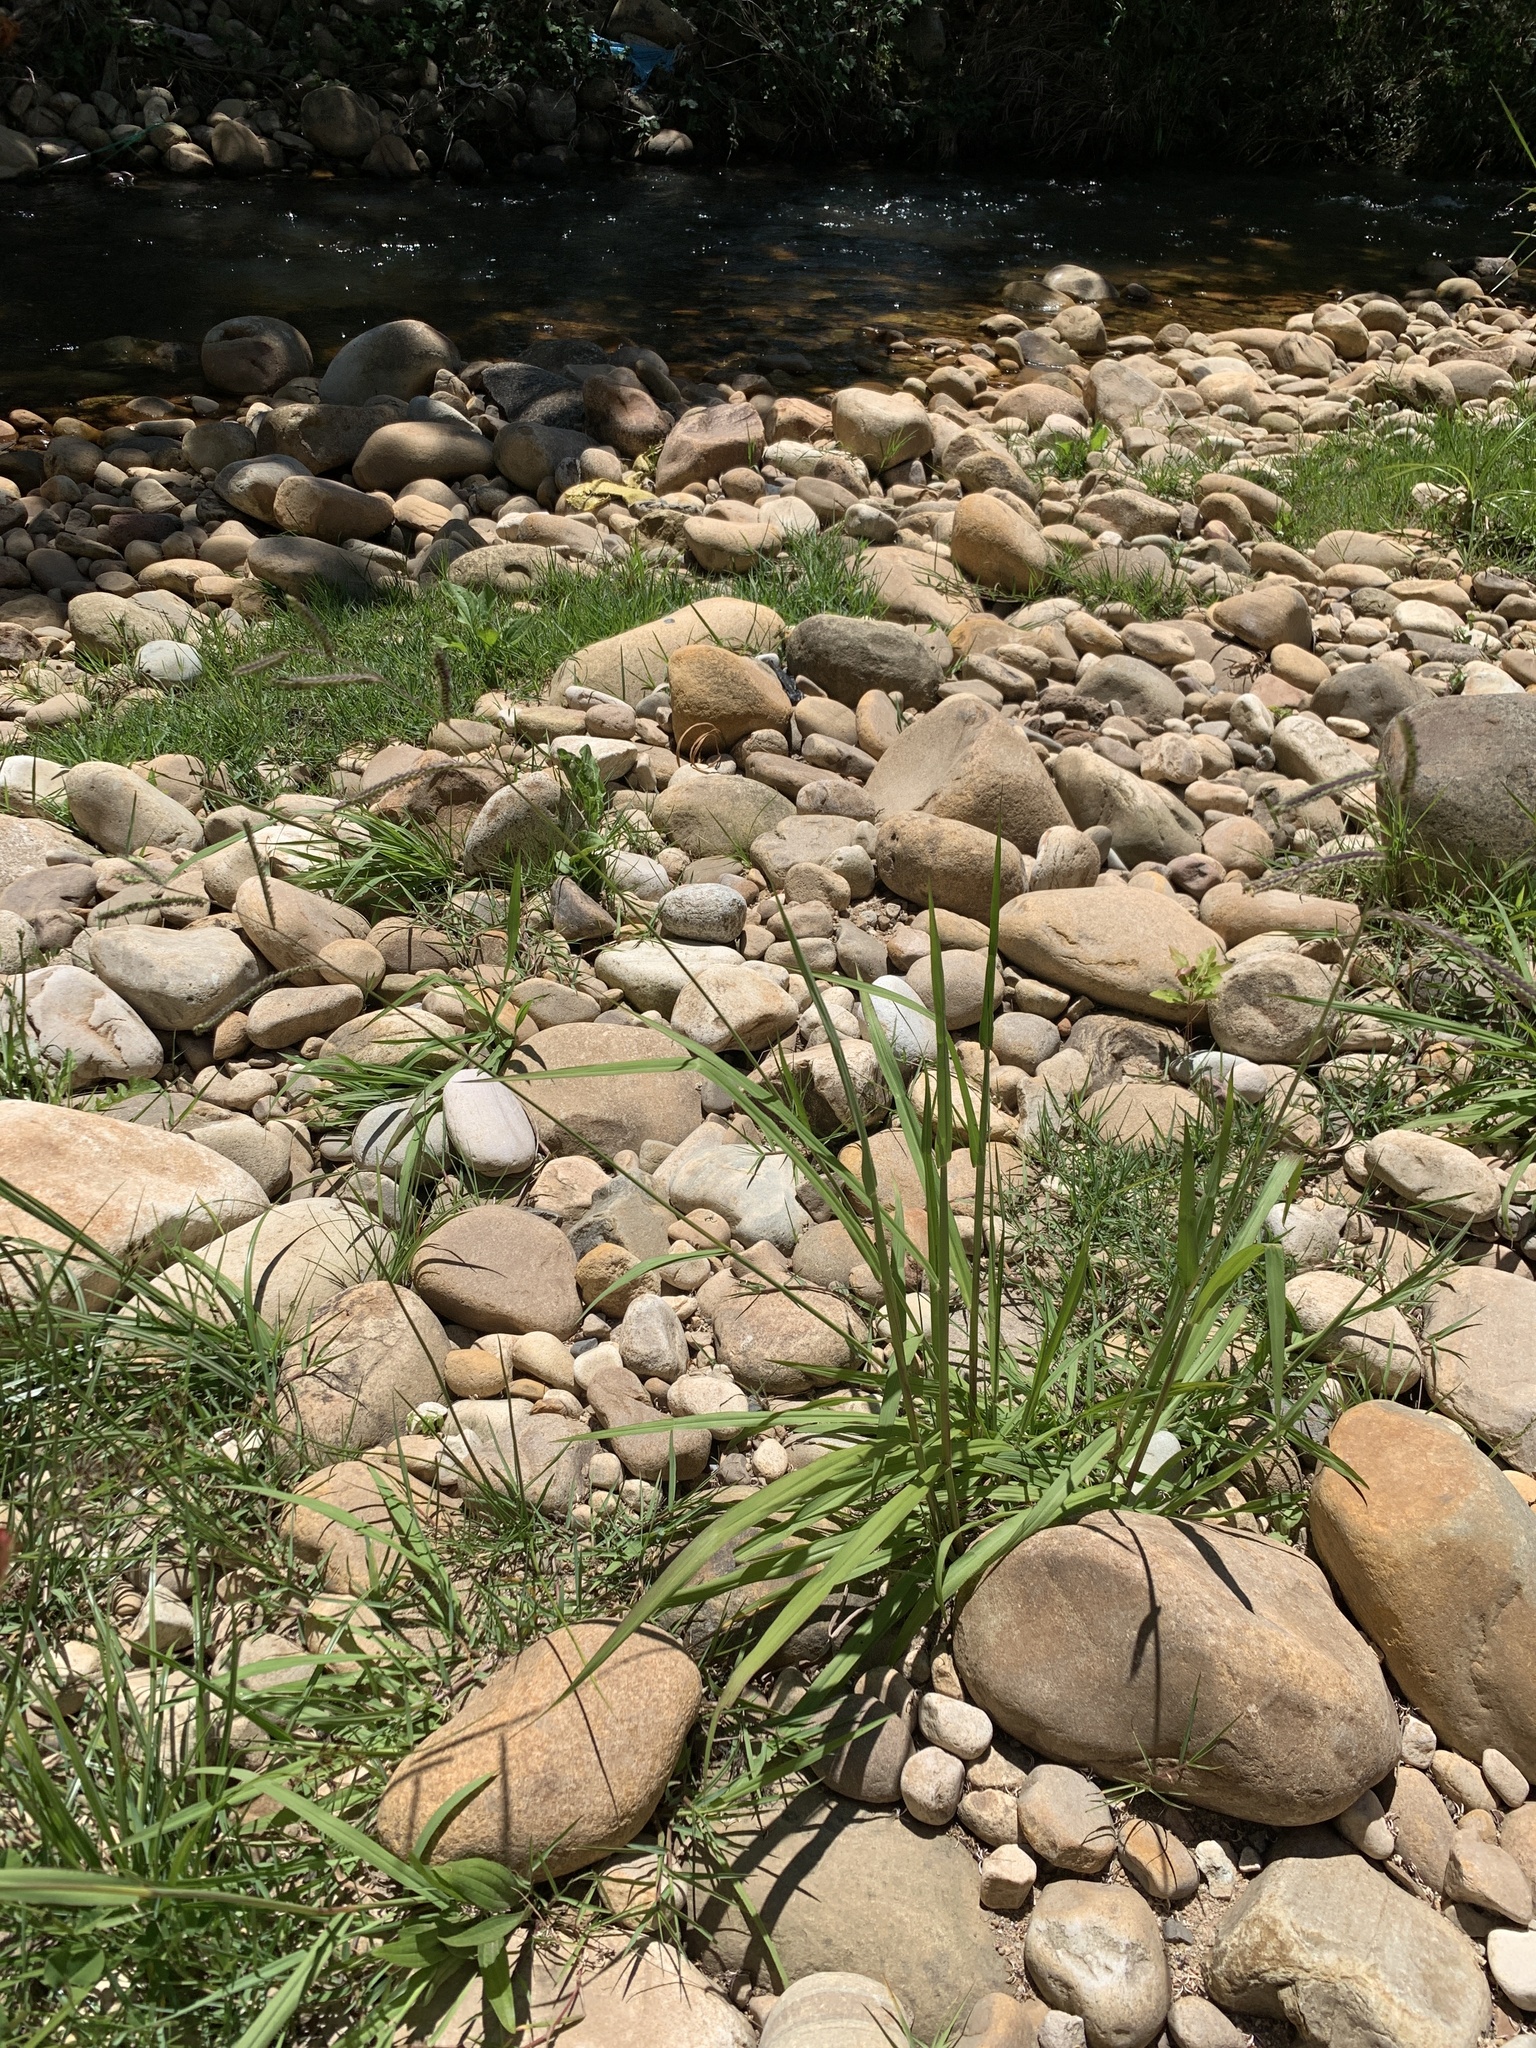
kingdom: Plantae
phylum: Tracheophyta
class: Liliopsida
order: Poales
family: Poaceae
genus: Paspalum
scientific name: Paspalum dilatatum
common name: Dallisgrass
